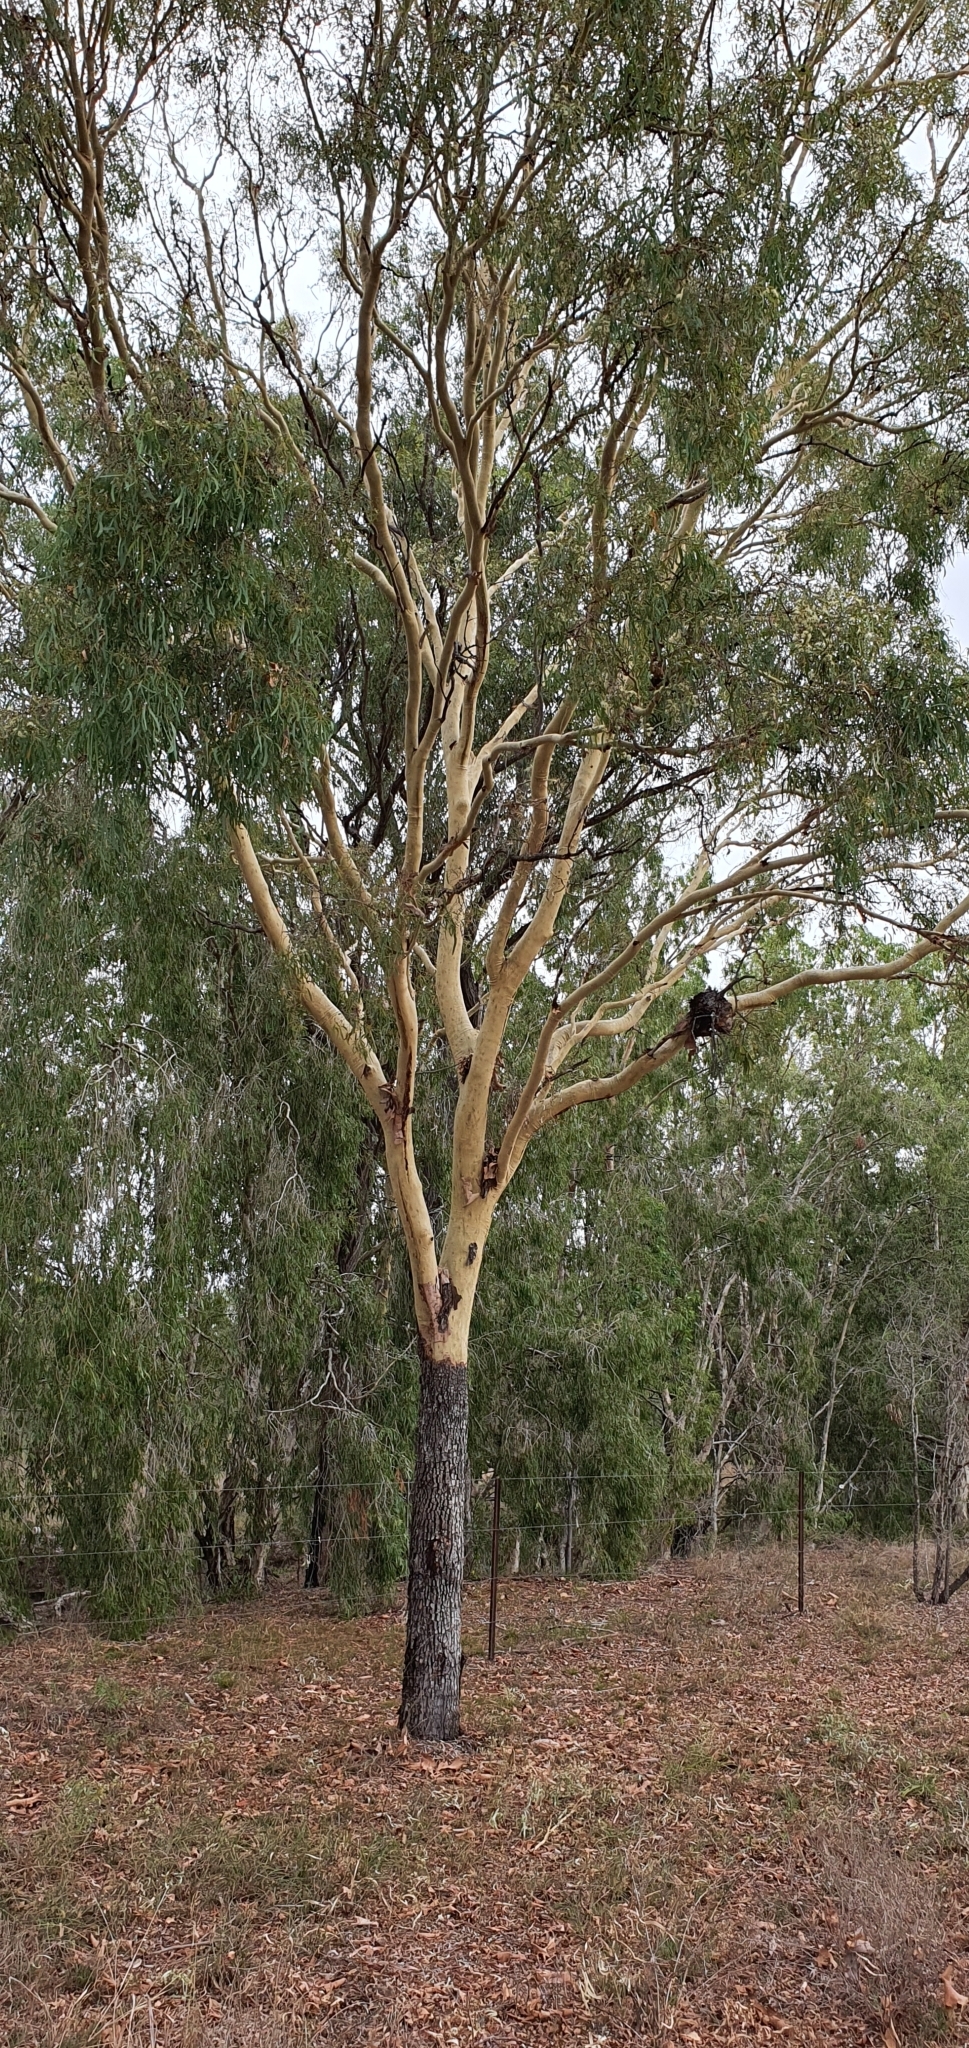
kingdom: Plantae
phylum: Tracheophyta
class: Magnoliopsida
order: Myrtales
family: Myrtaceae
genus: Corymbia
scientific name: Corymbia tessellaris
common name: Carbeen
